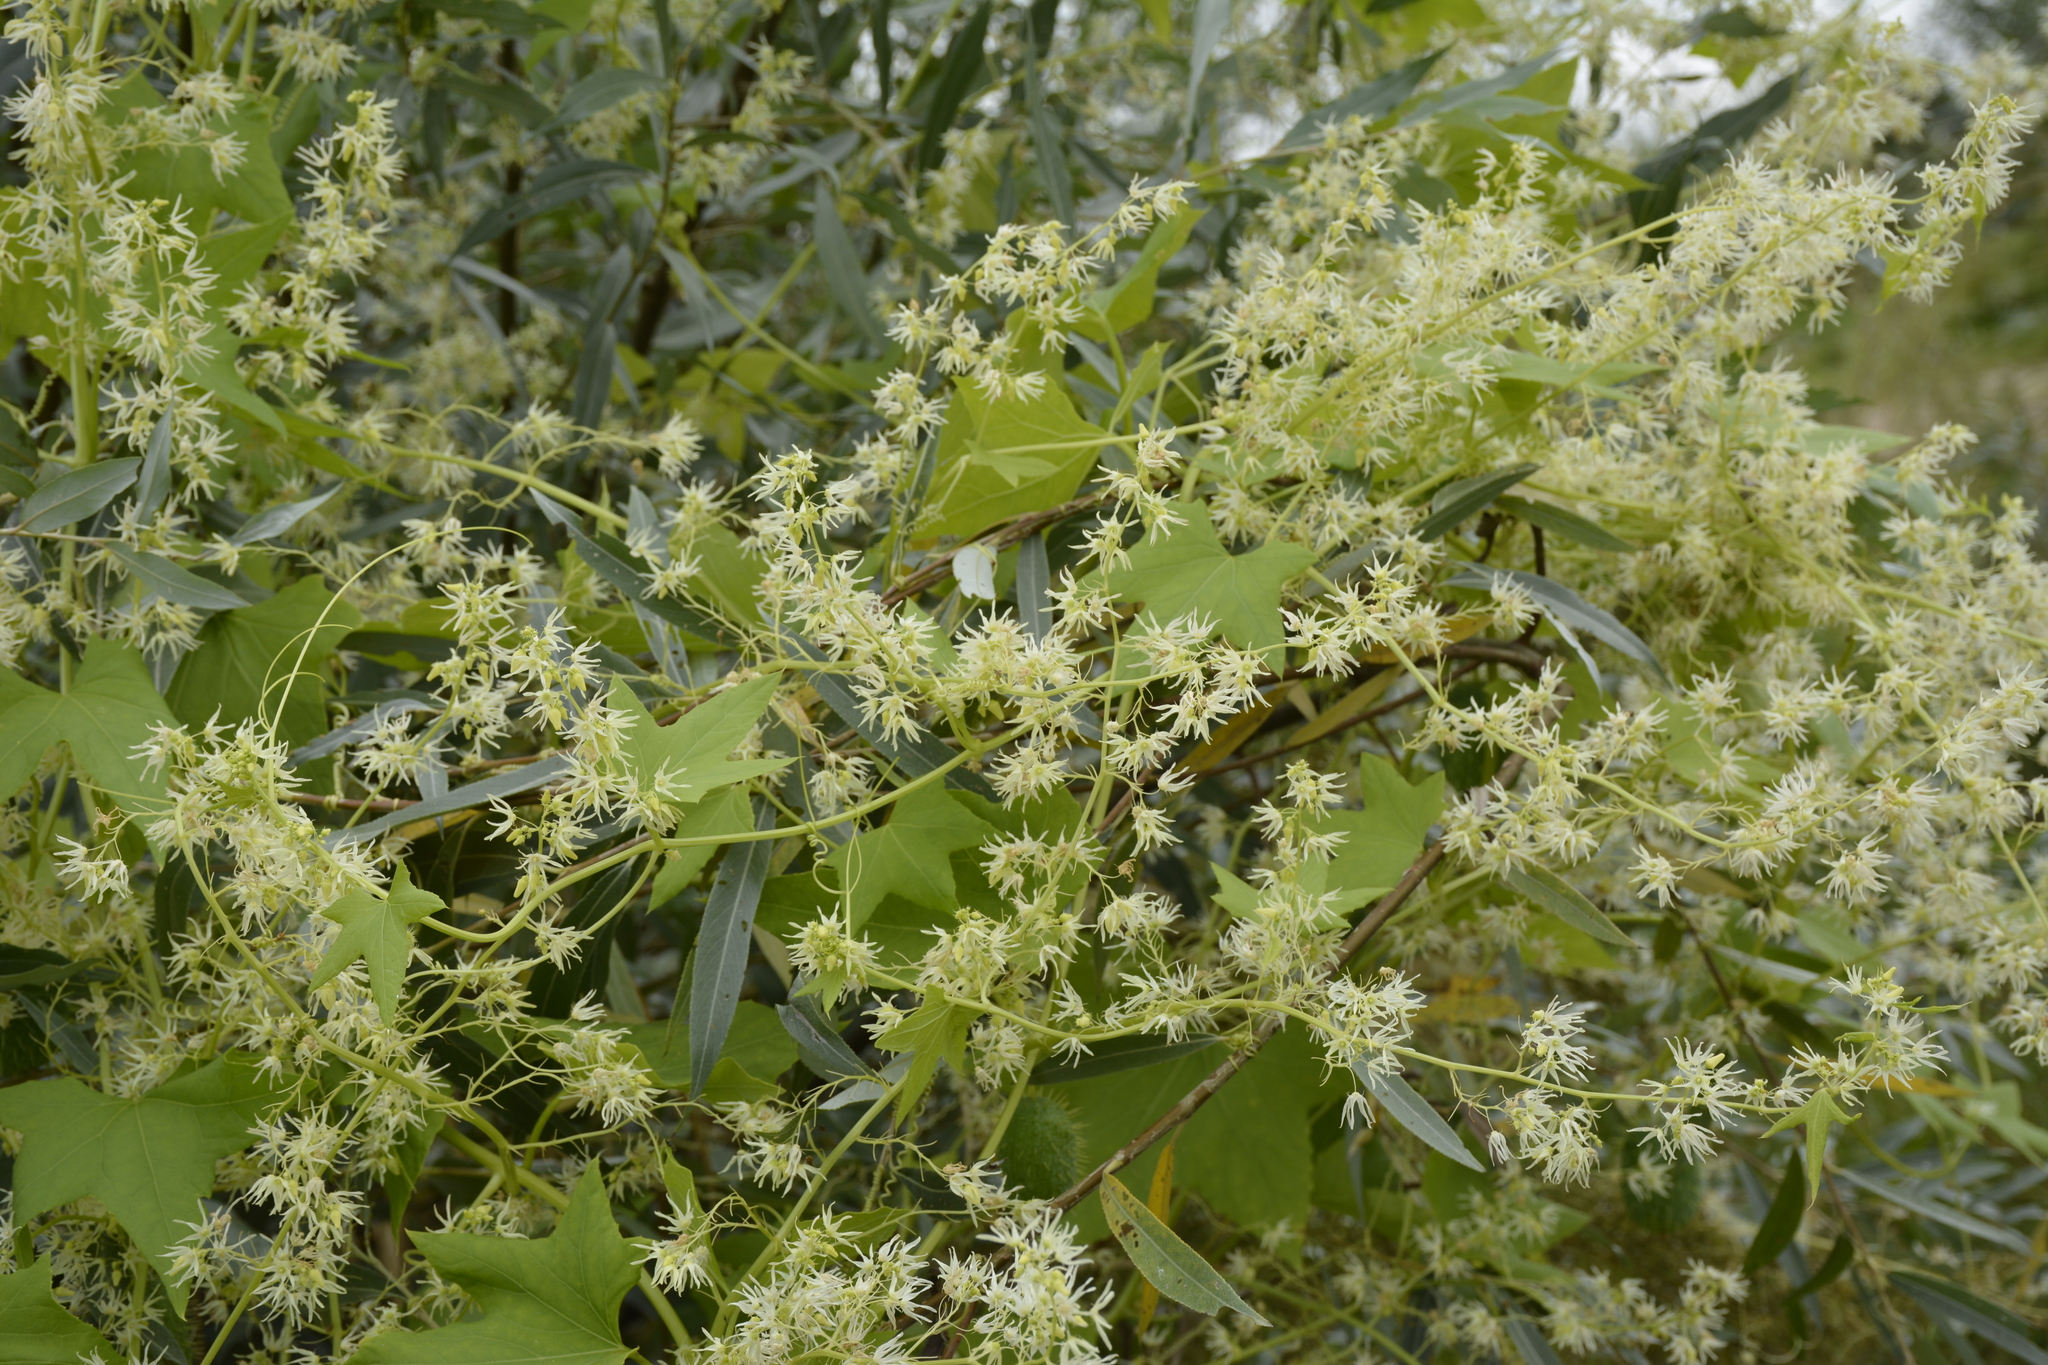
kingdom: Plantae
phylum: Tracheophyta
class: Magnoliopsida
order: Cucurbitales
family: Cucurbitaceae
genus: Echinocystis
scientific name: Echinocystis lobata
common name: Wild cucumber
